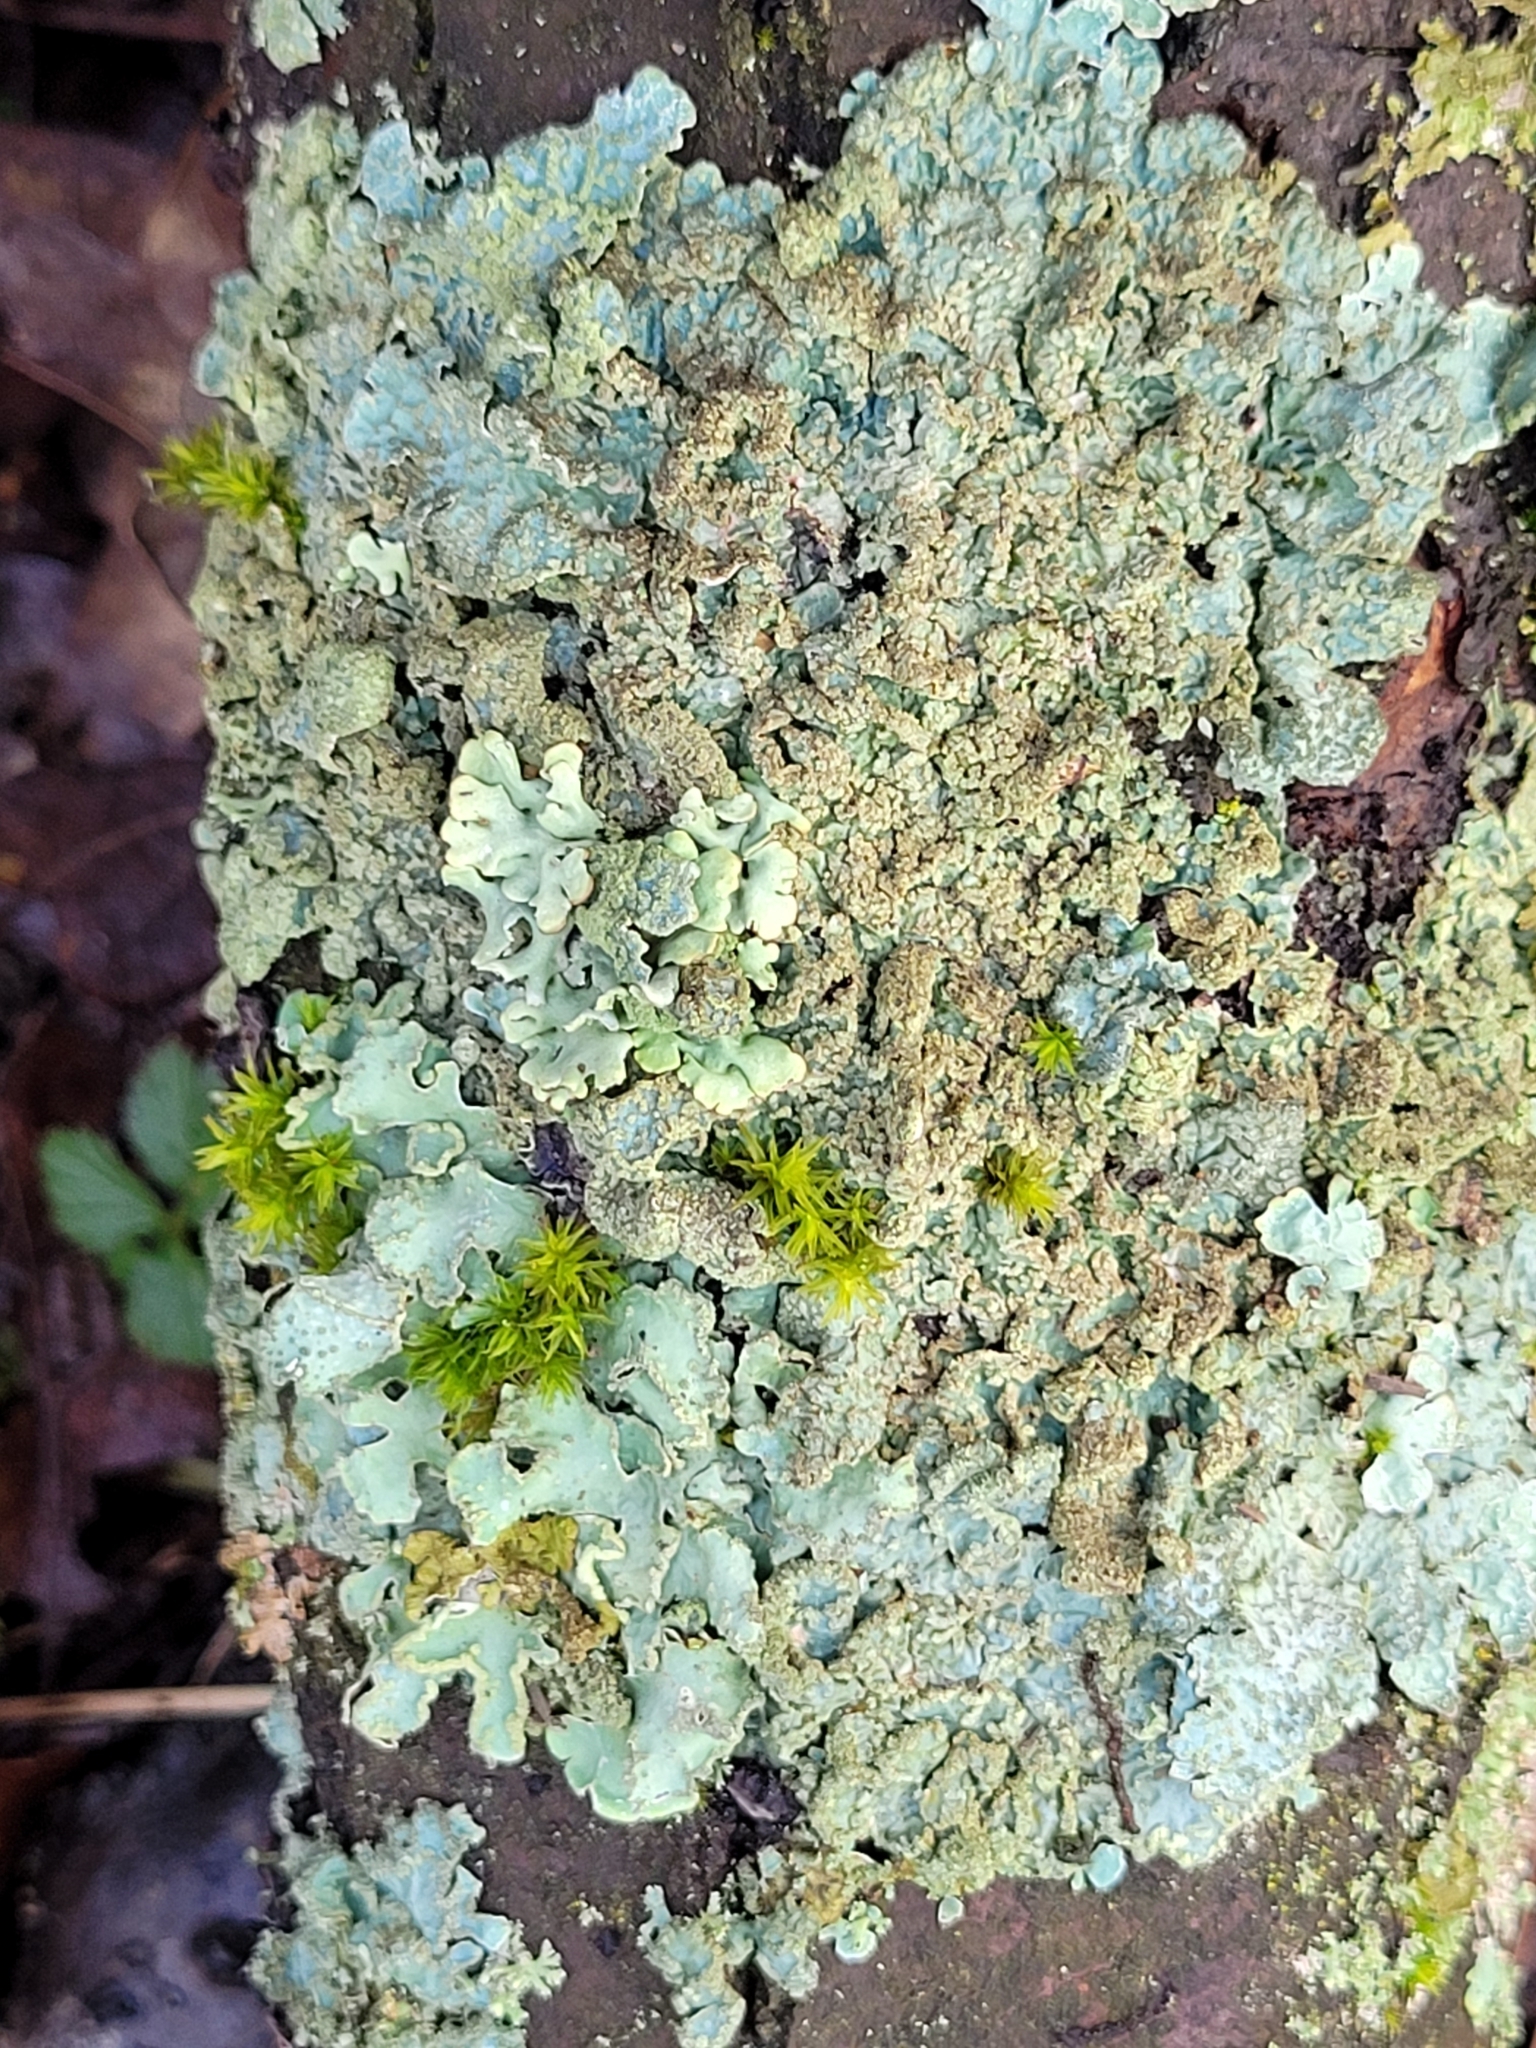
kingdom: Fungi
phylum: Ascomycota
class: Lecanoromycetes
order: Lecanorales
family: Parmeliaceae
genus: Parmelia
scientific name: Parmelia sulcata
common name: Netted shield lichen
